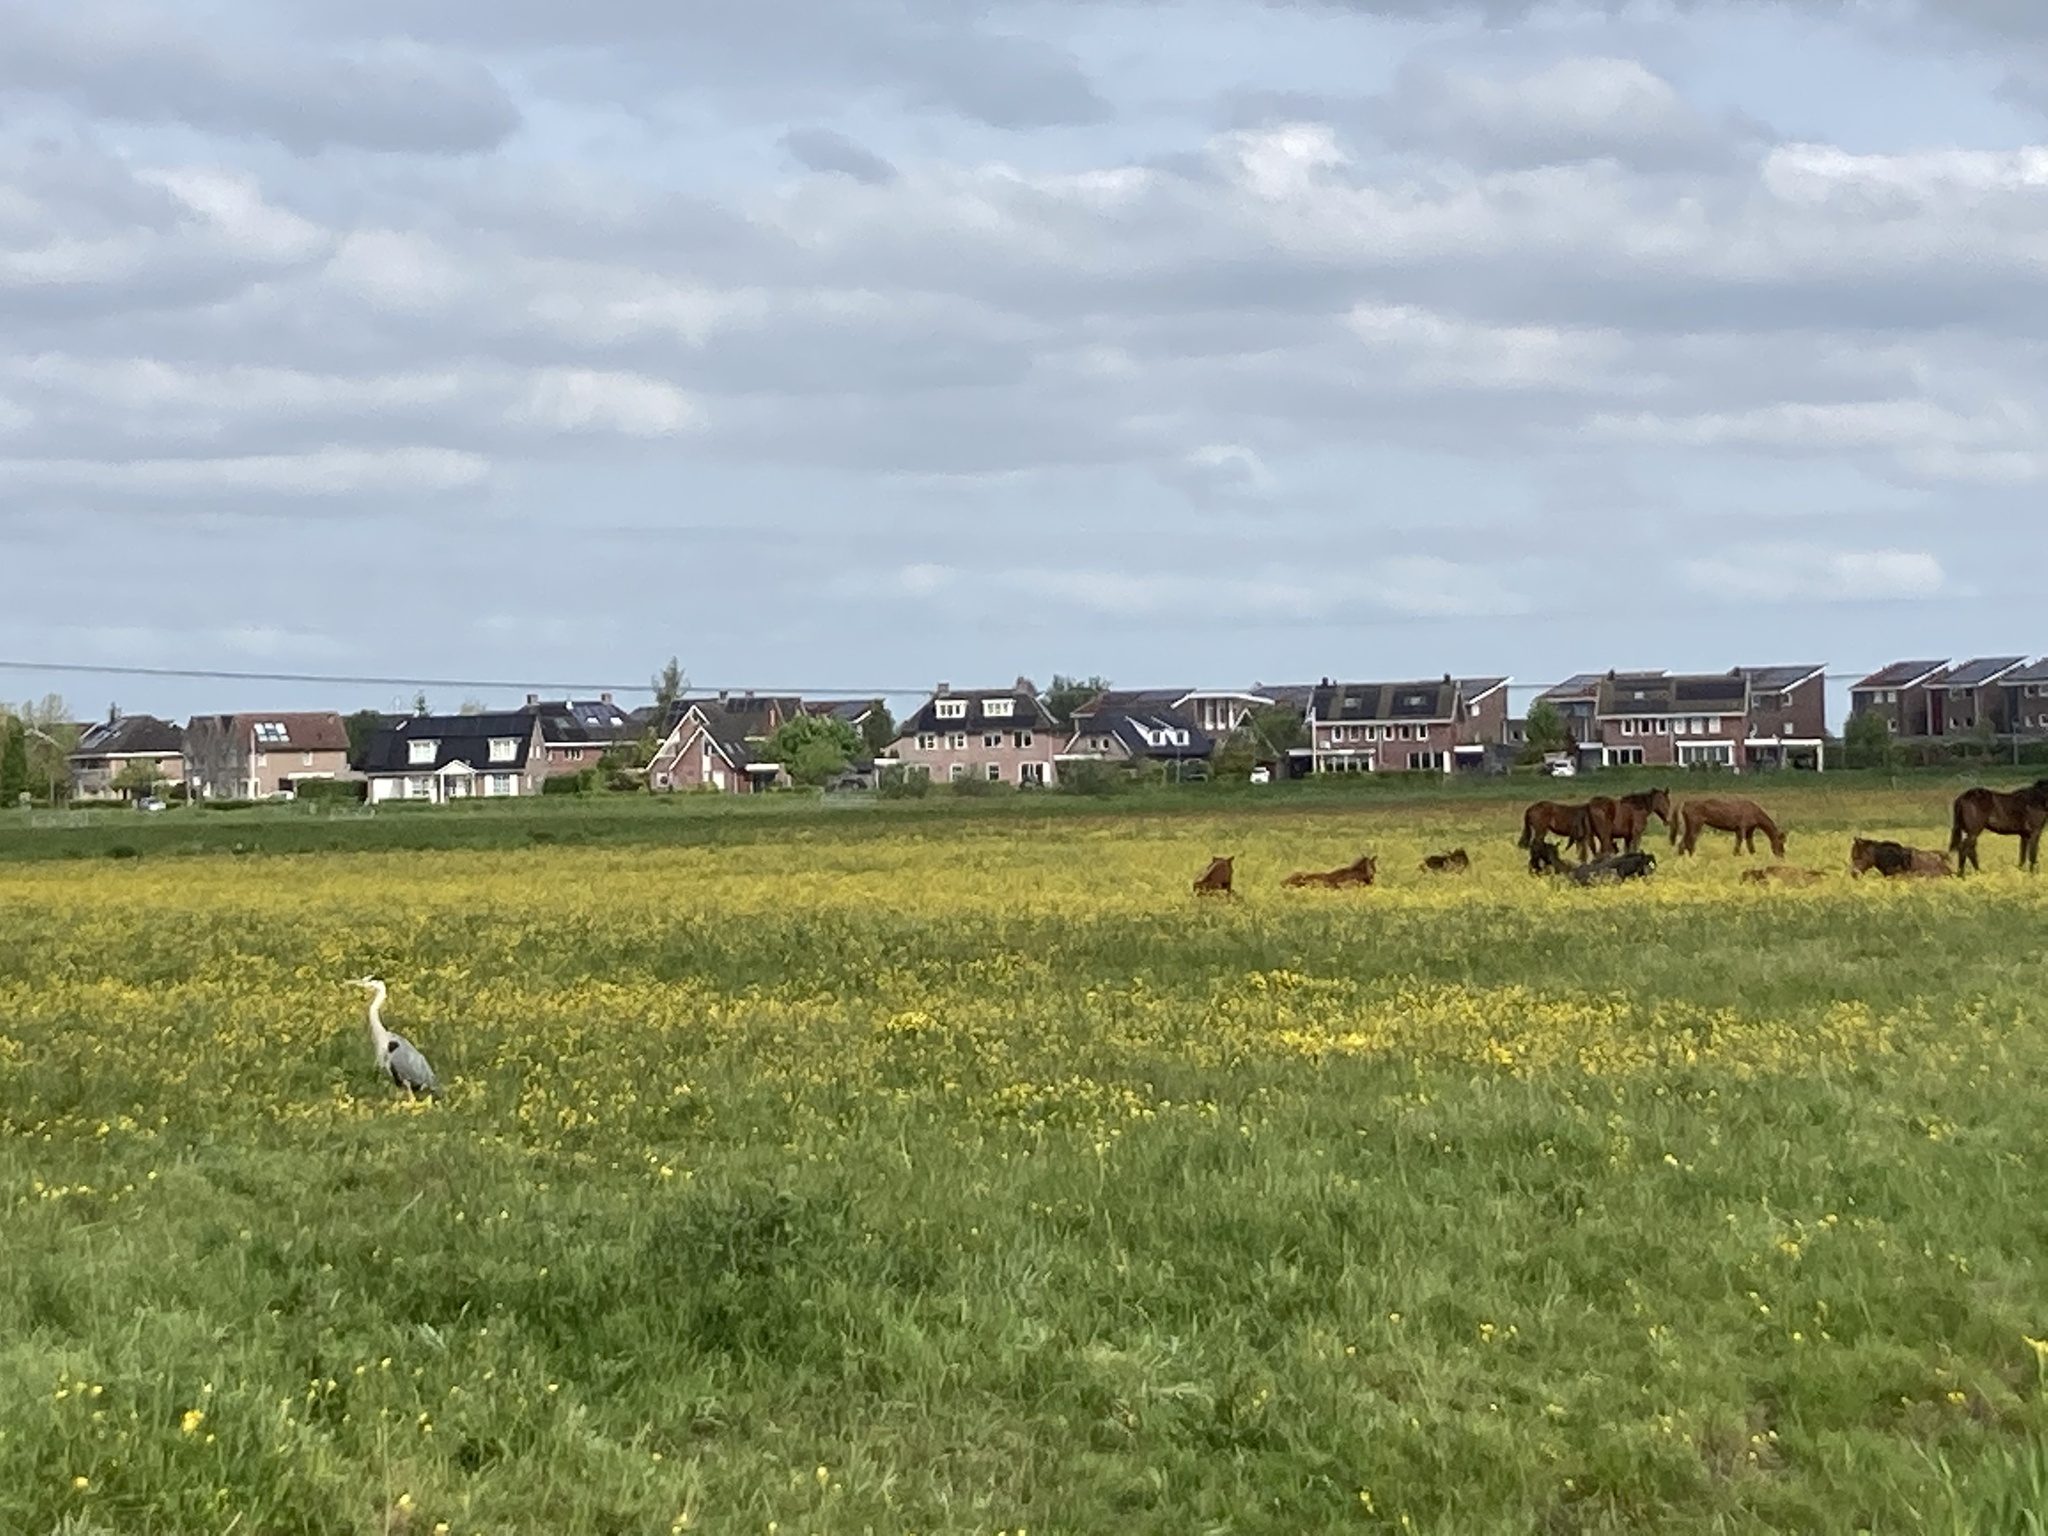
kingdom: Animalia
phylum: Chordata
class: Aves
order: Pelecaniformes
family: Ardeidae
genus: Ardea
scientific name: Ardea cinerea
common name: Grey heron
